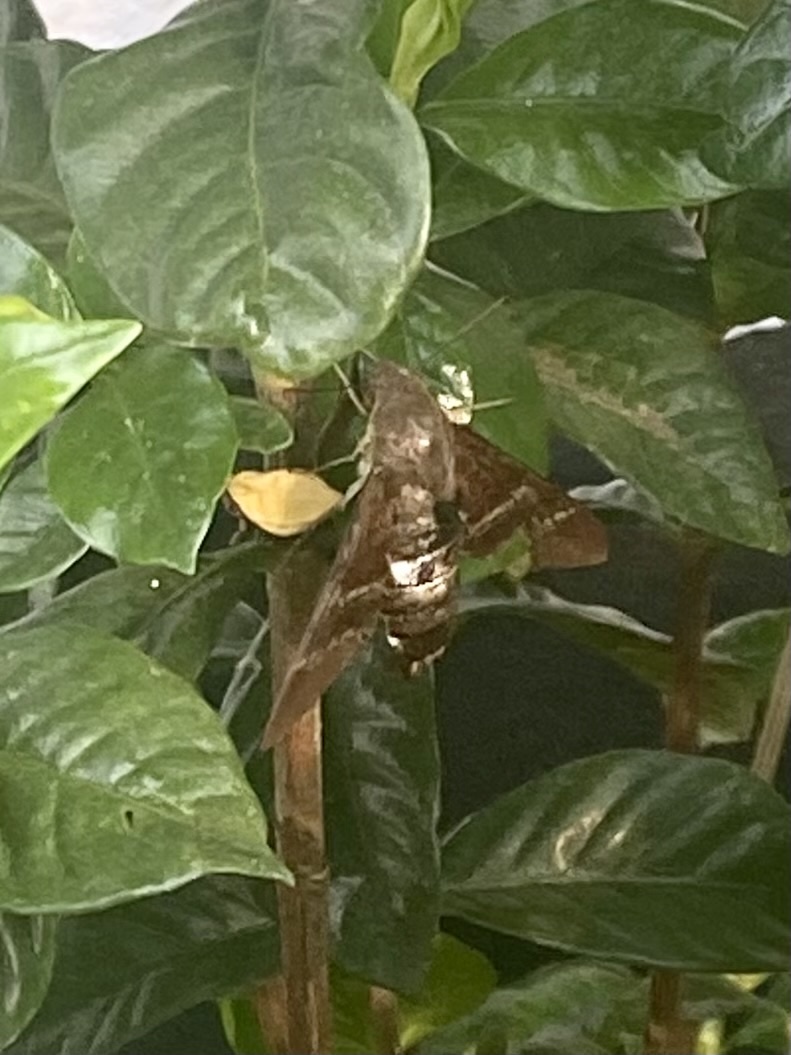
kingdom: Animalia
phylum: Arthropoda
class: Insecta
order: Lepidoptera
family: Sphingidae
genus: Aellopos
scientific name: Aellopos titan
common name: Titan sphinx
